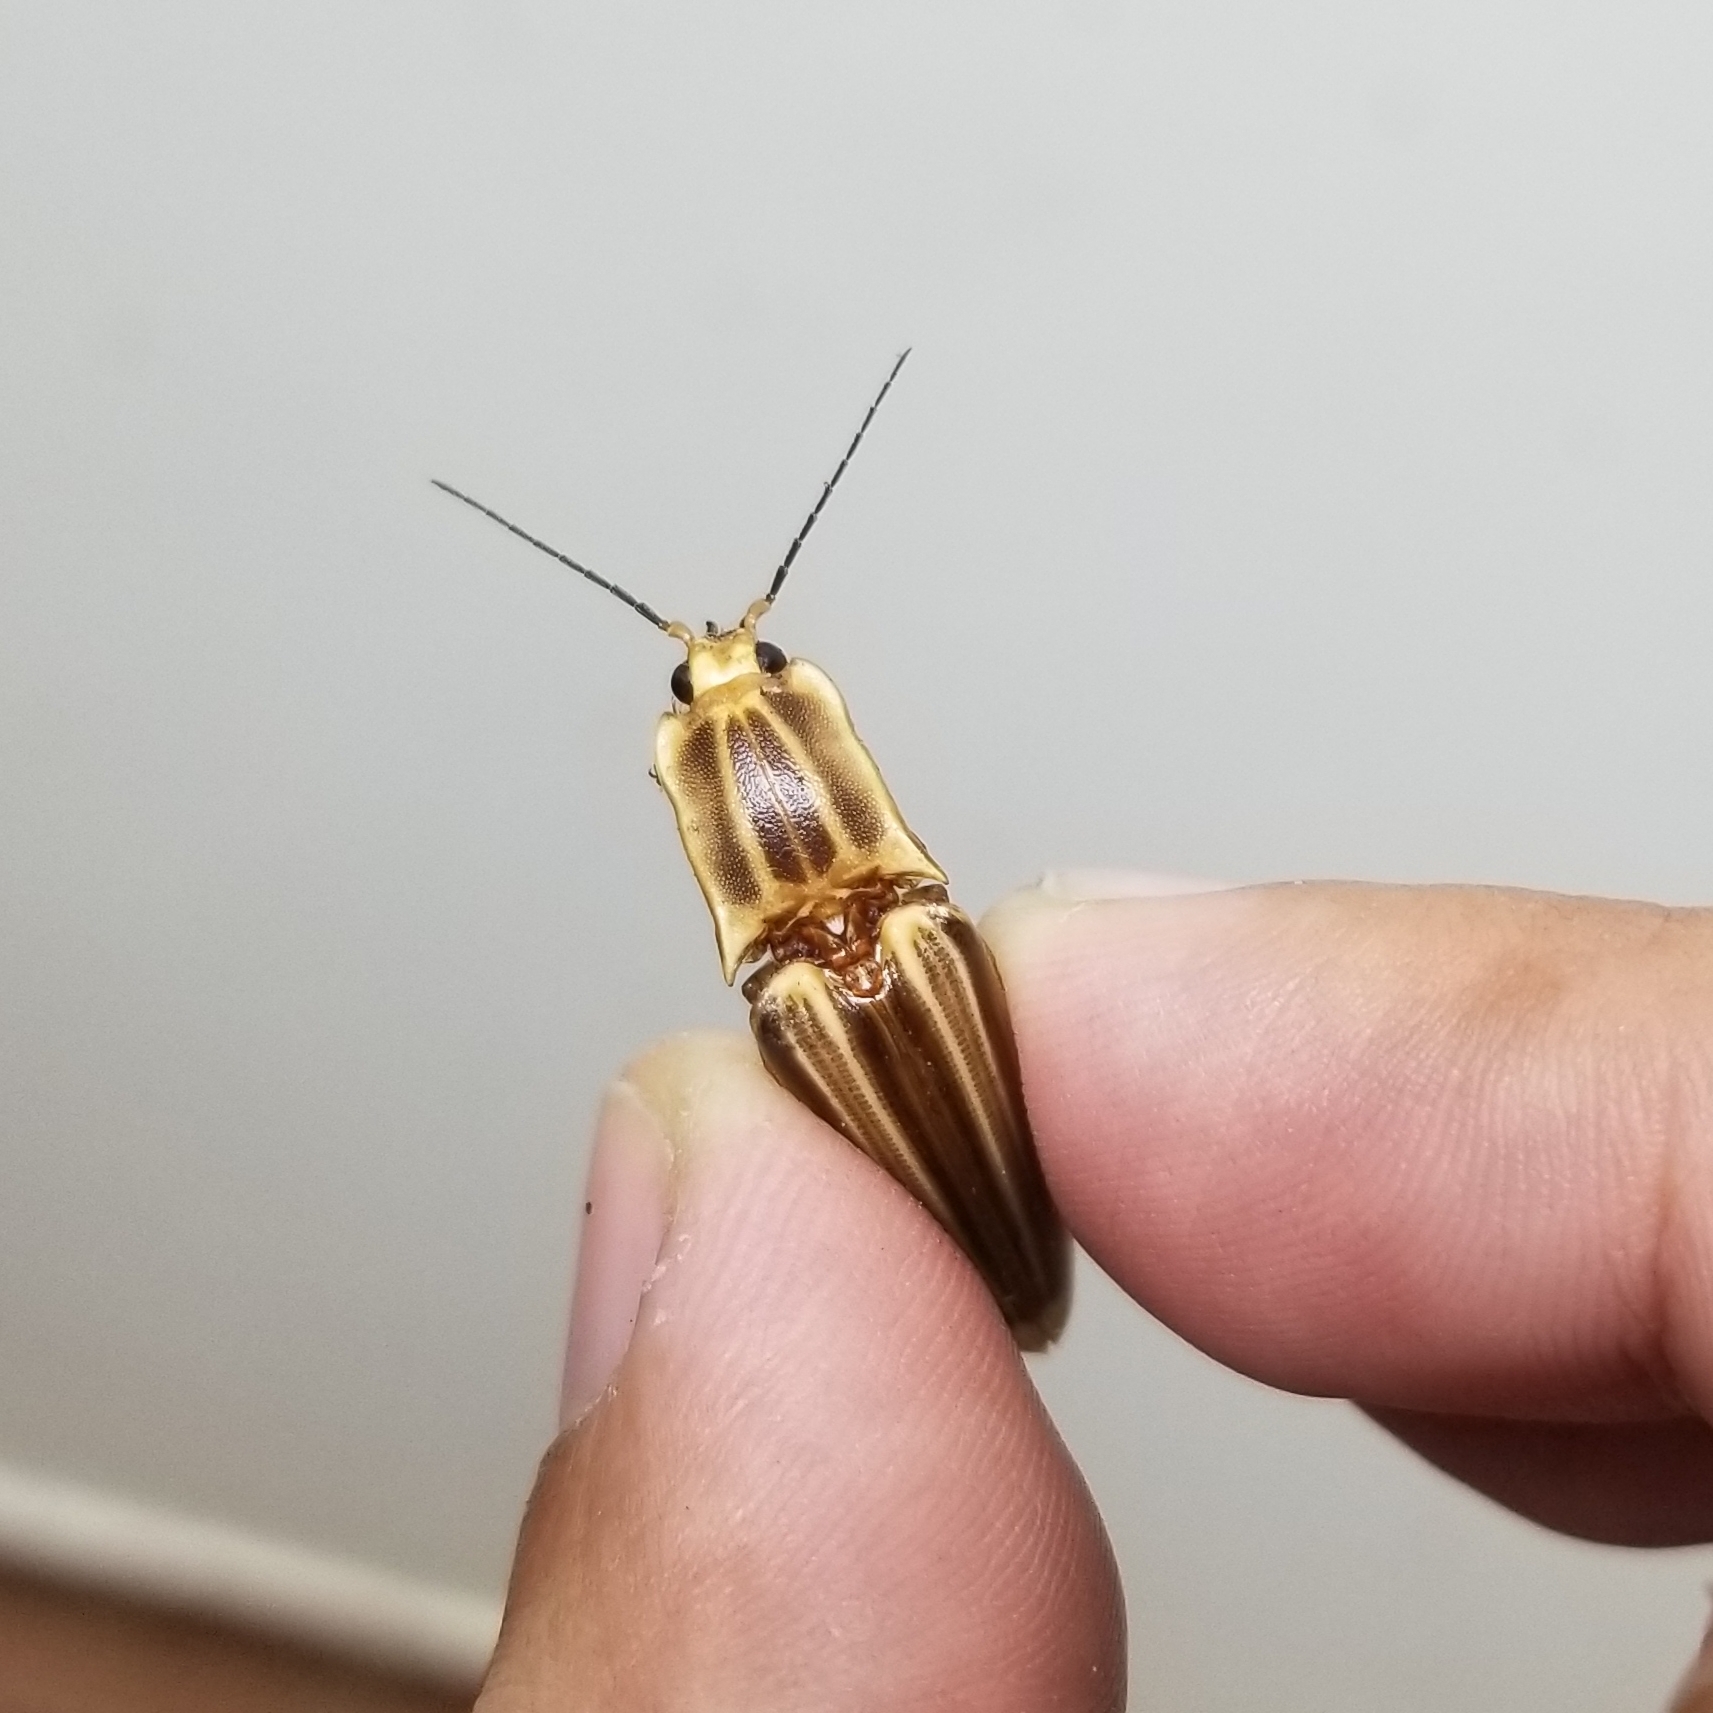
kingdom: Animalia
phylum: Arthropoda
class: Insecta
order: Coleoptera
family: Elateridae
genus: Semiotus
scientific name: Semiotus ligneus
